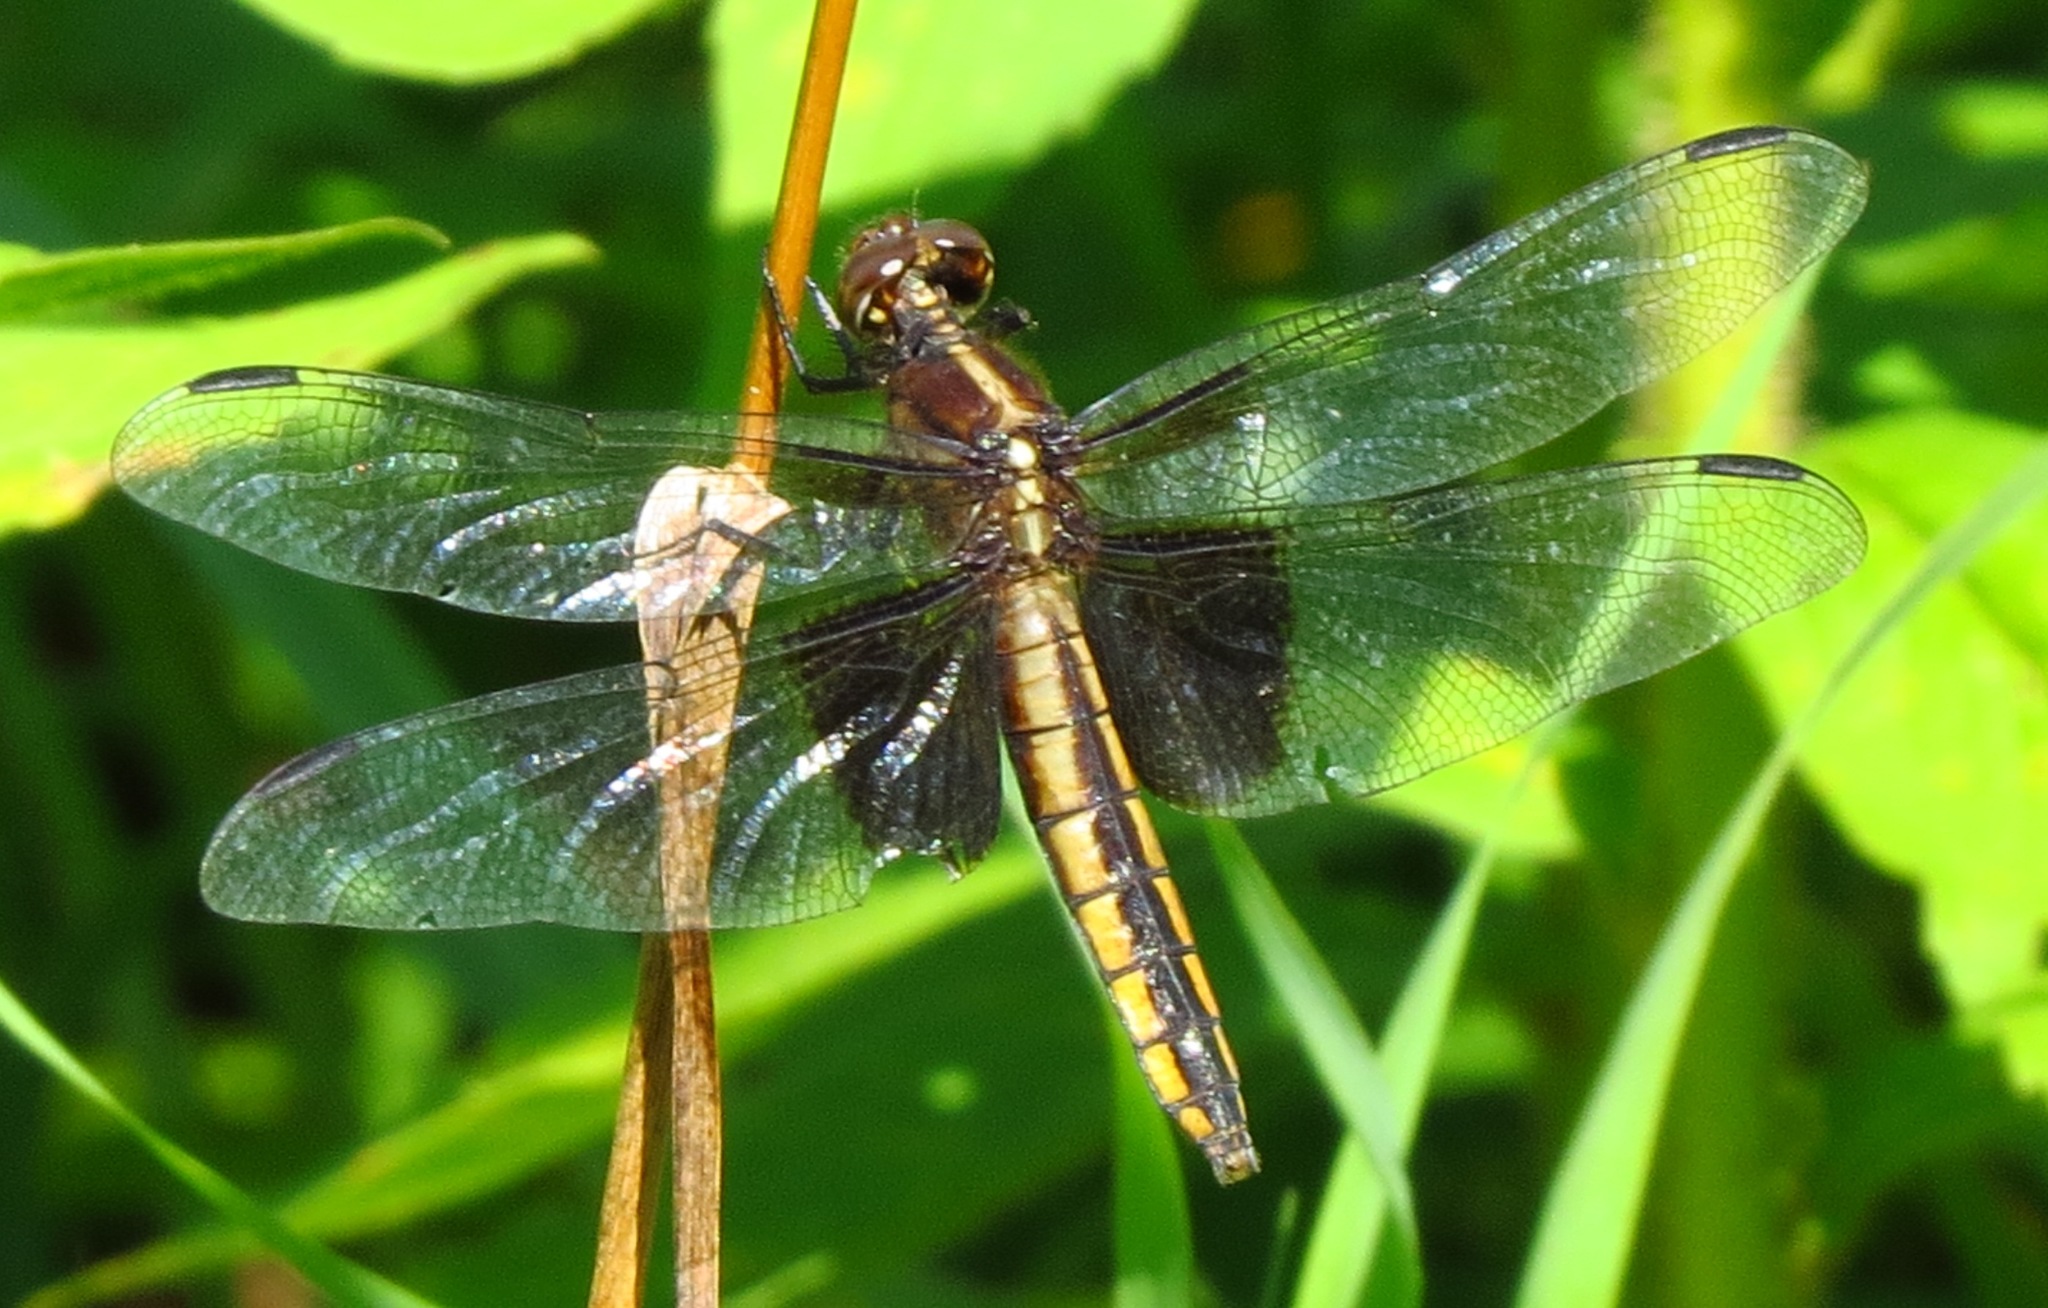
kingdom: Animalia
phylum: Arthropoda
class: Insecta
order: Odonata
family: Libellulidae
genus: Libellula
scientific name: Libellula luctuosa
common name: Widow skimmer
